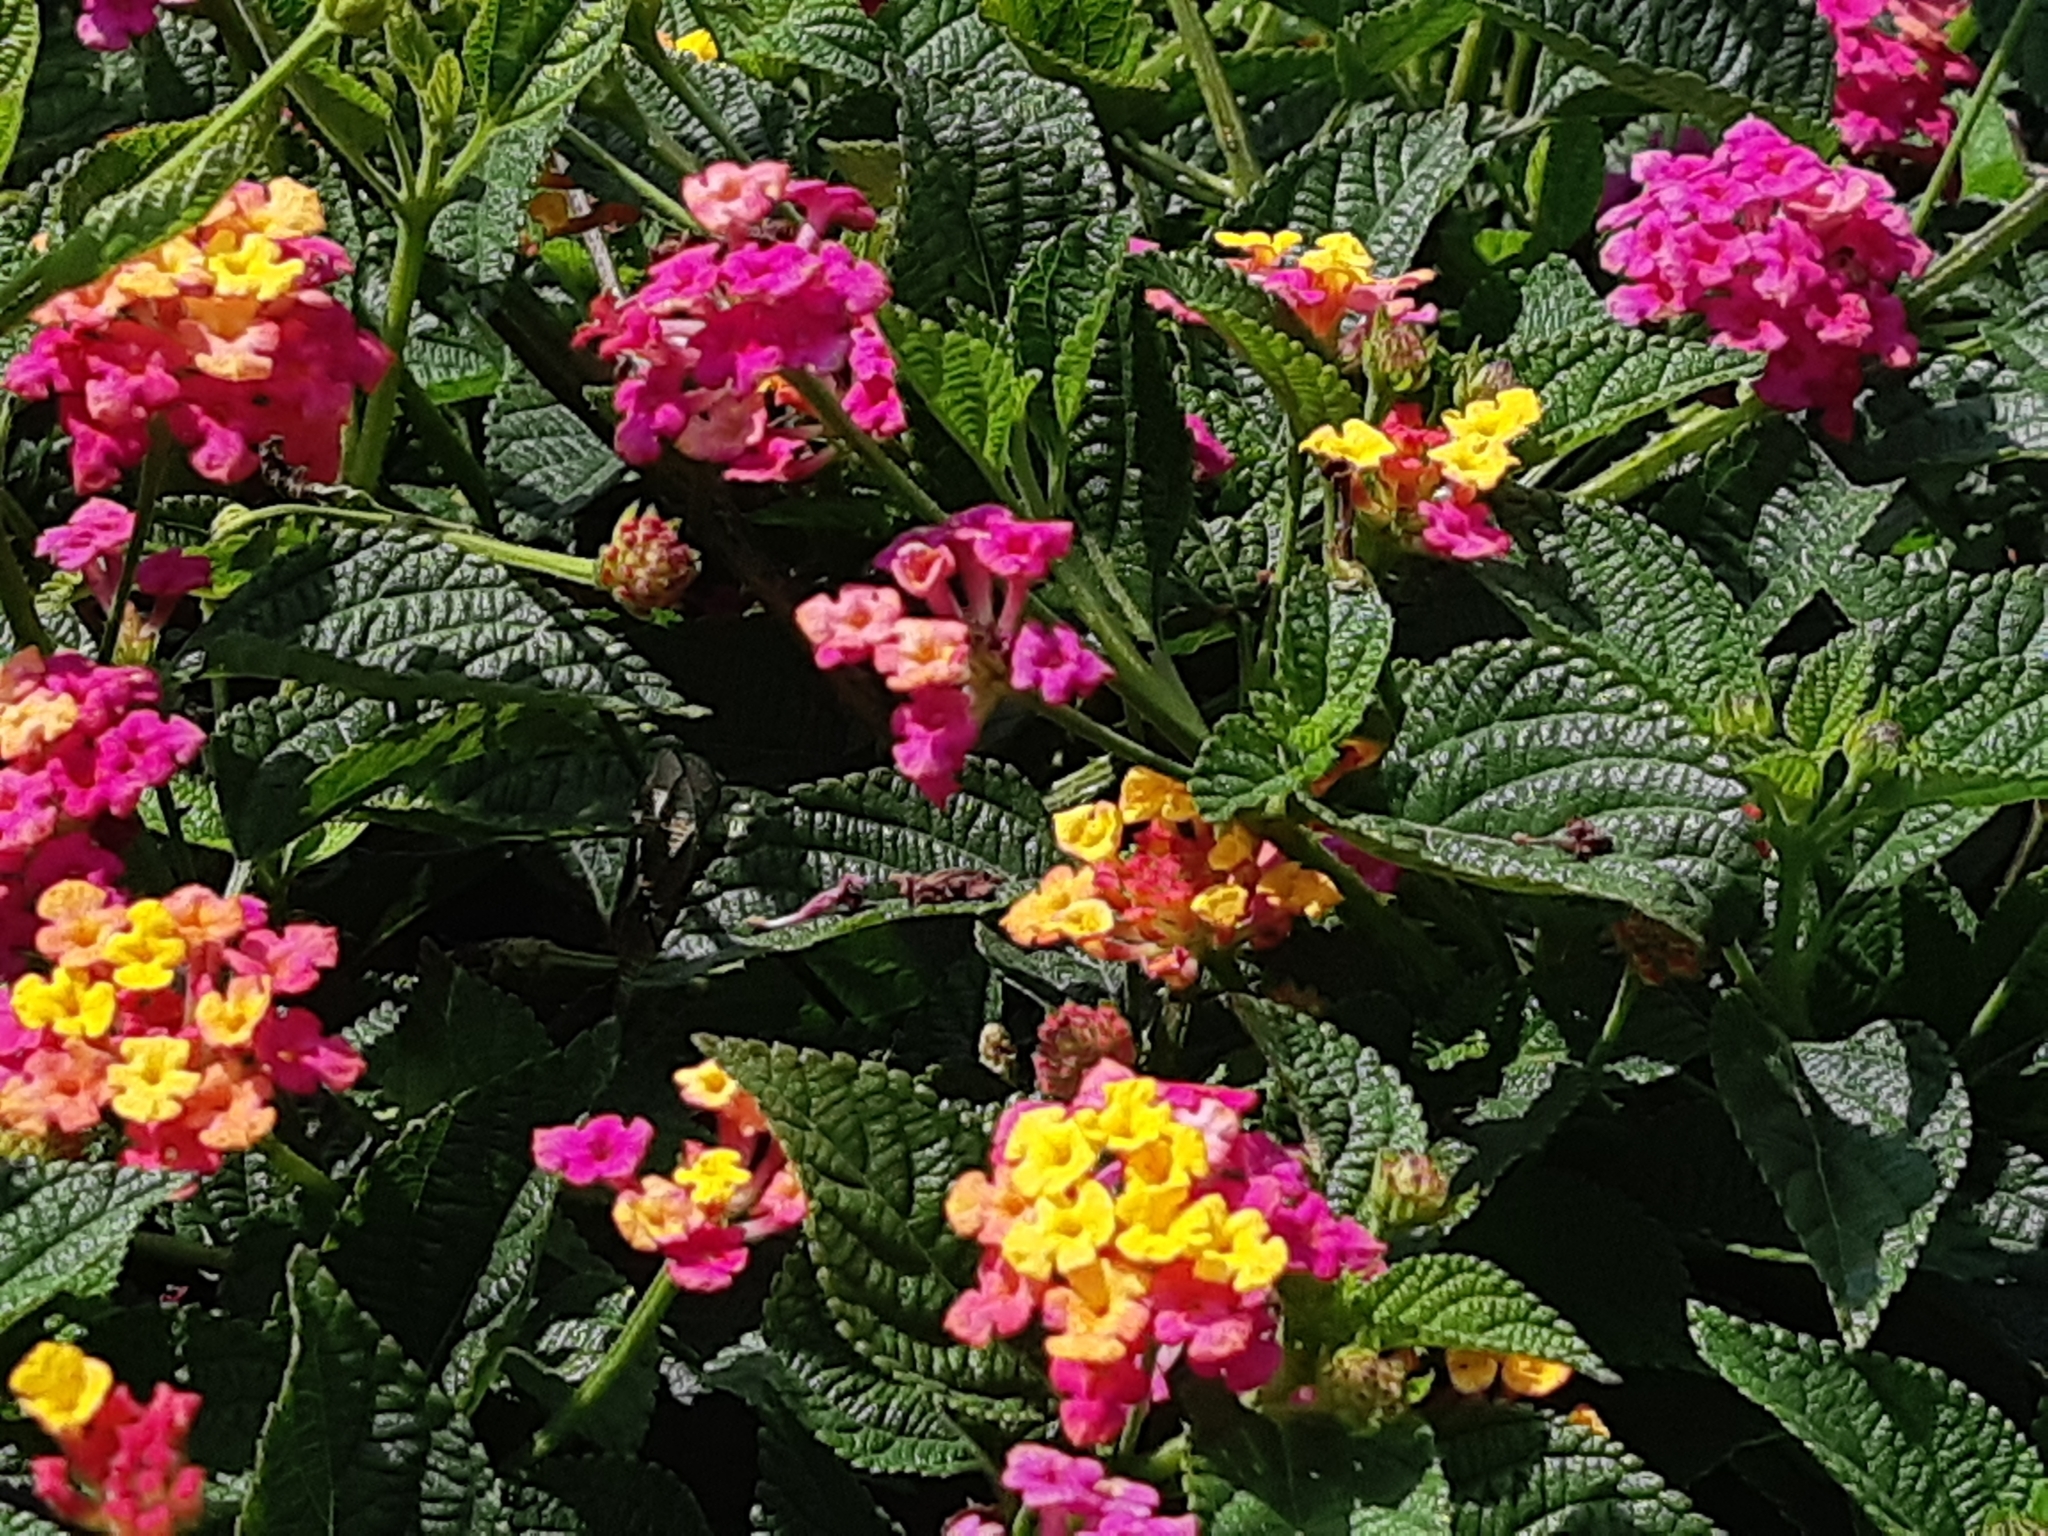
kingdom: Plantae
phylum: Tracheophyta
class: Magnoliopsida
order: Lamiales
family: Verbenaceae
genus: Lantana
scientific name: Lantana camara
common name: Lantana
